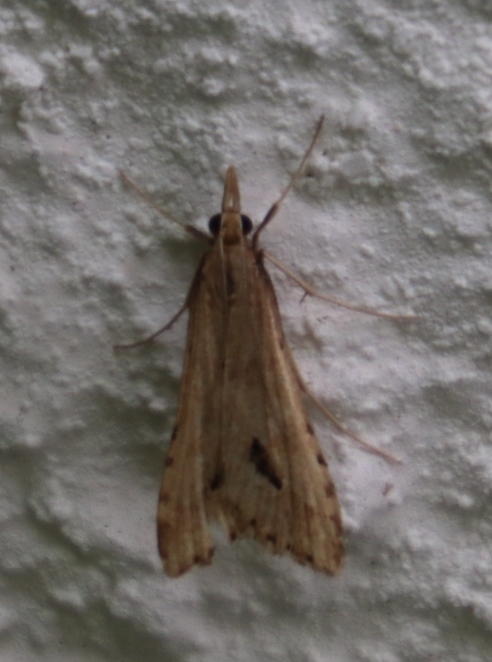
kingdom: Animalia
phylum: Arthropoda
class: Insecta
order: Lepidoptera
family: Crambidae
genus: Diasemia
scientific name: Diasemia monostigma
